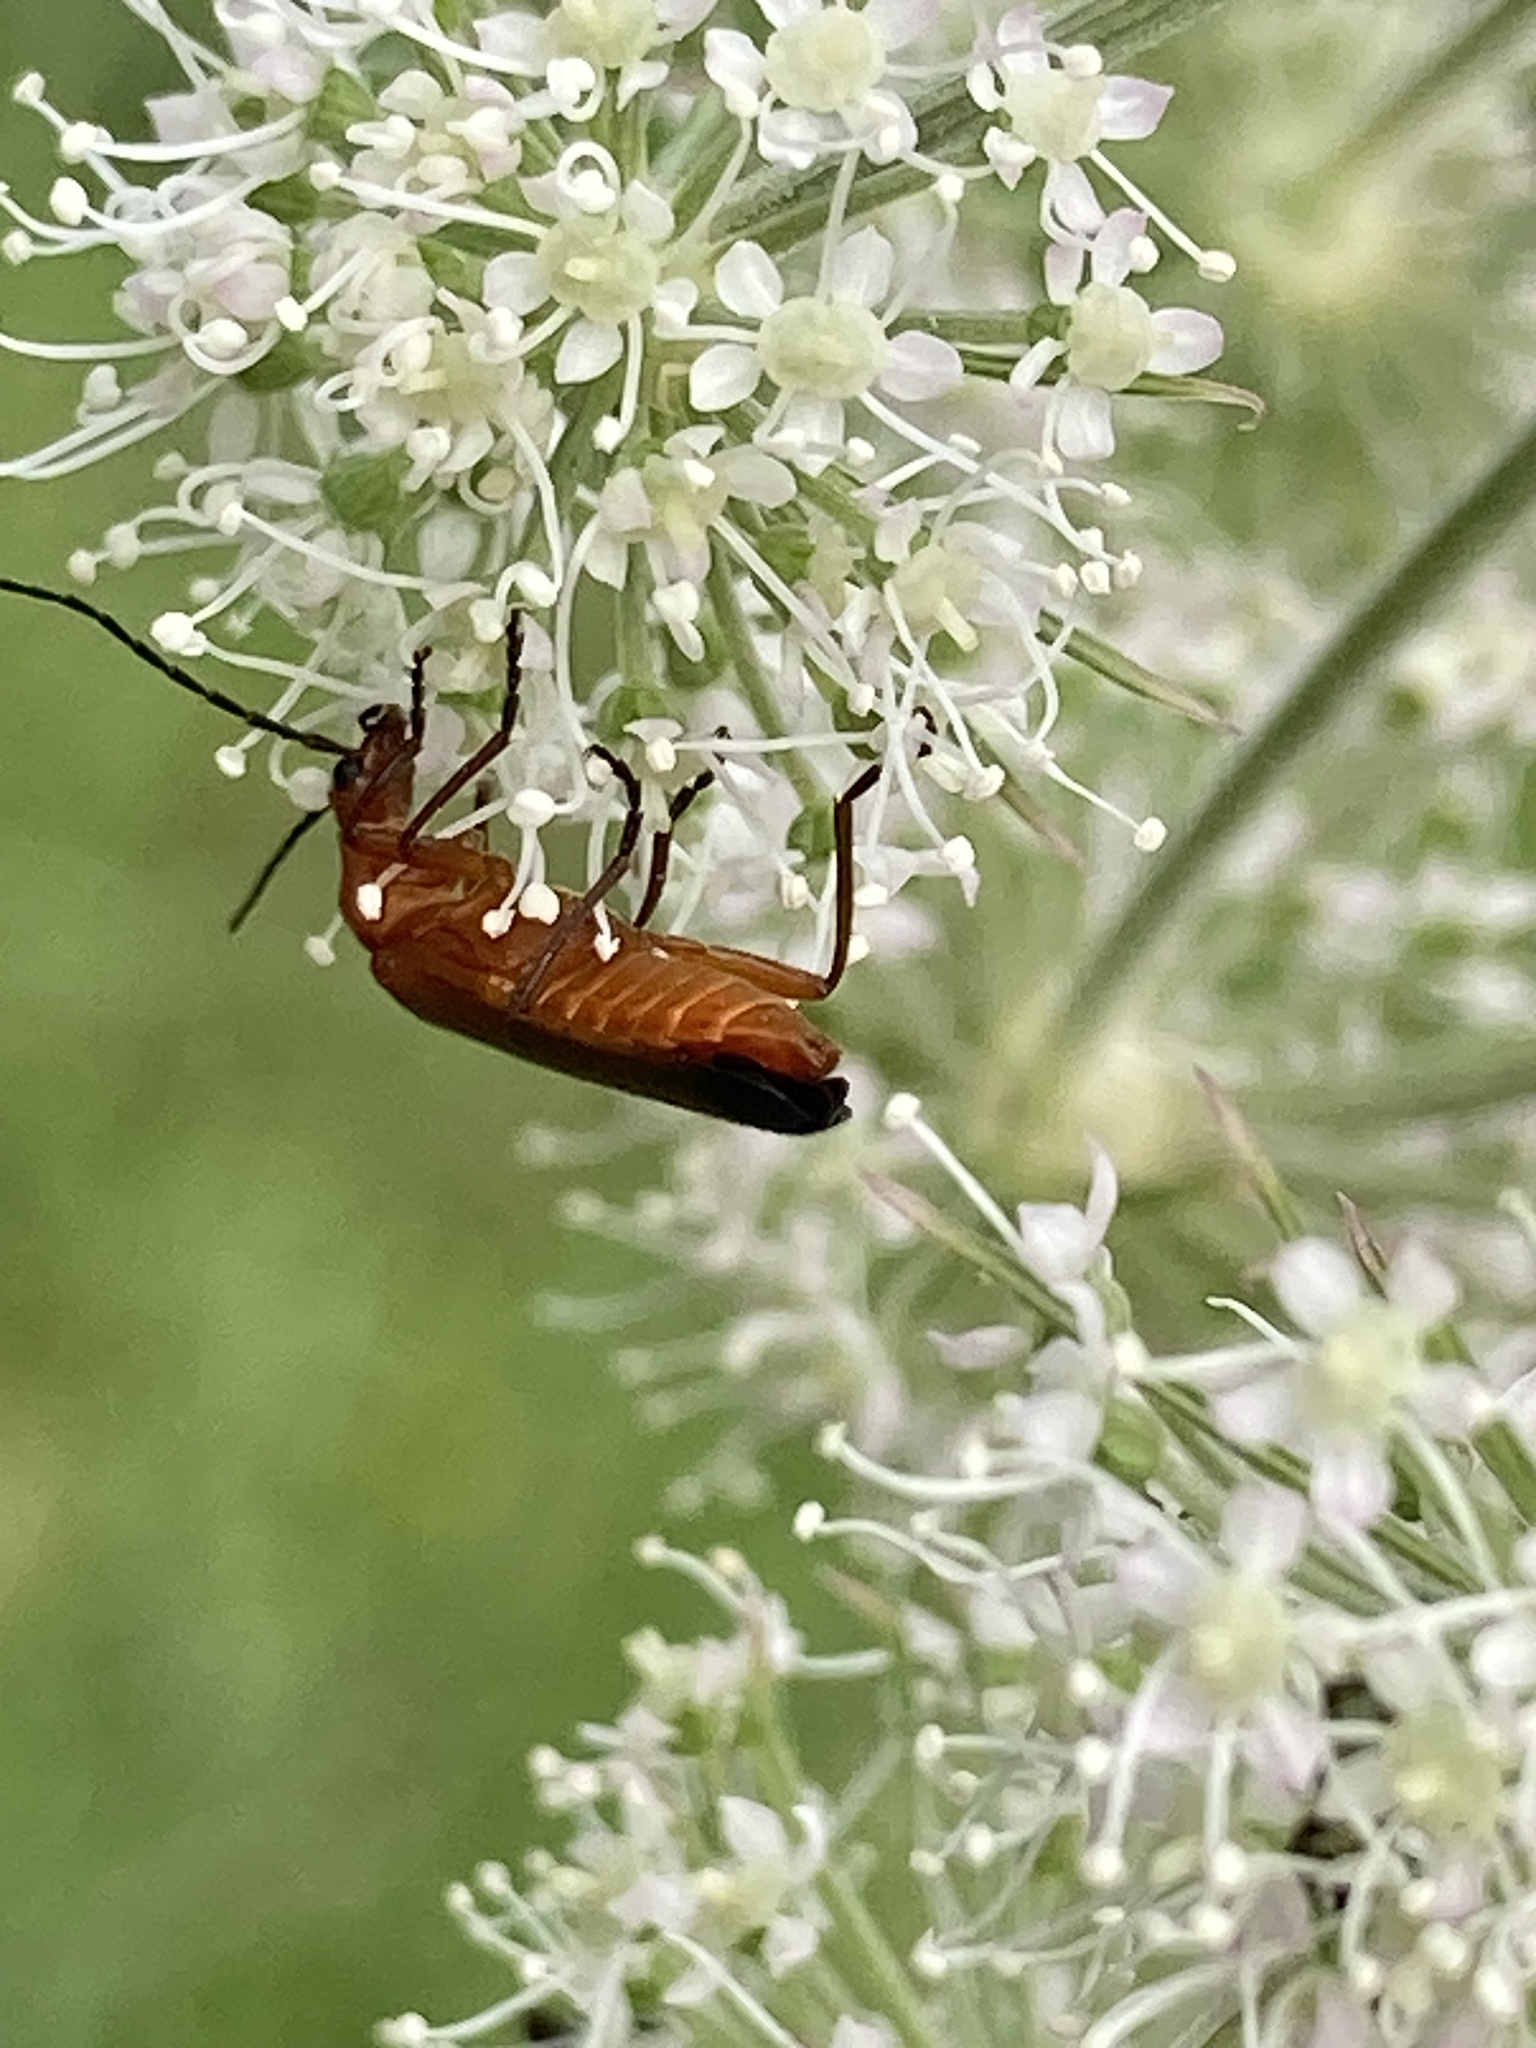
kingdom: Animalia
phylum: Arthropoda
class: Insecta
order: Coleoptera
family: Cantharidae
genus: Rhagonycha
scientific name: Rhagonycha fulva
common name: Common red soldier beetle
